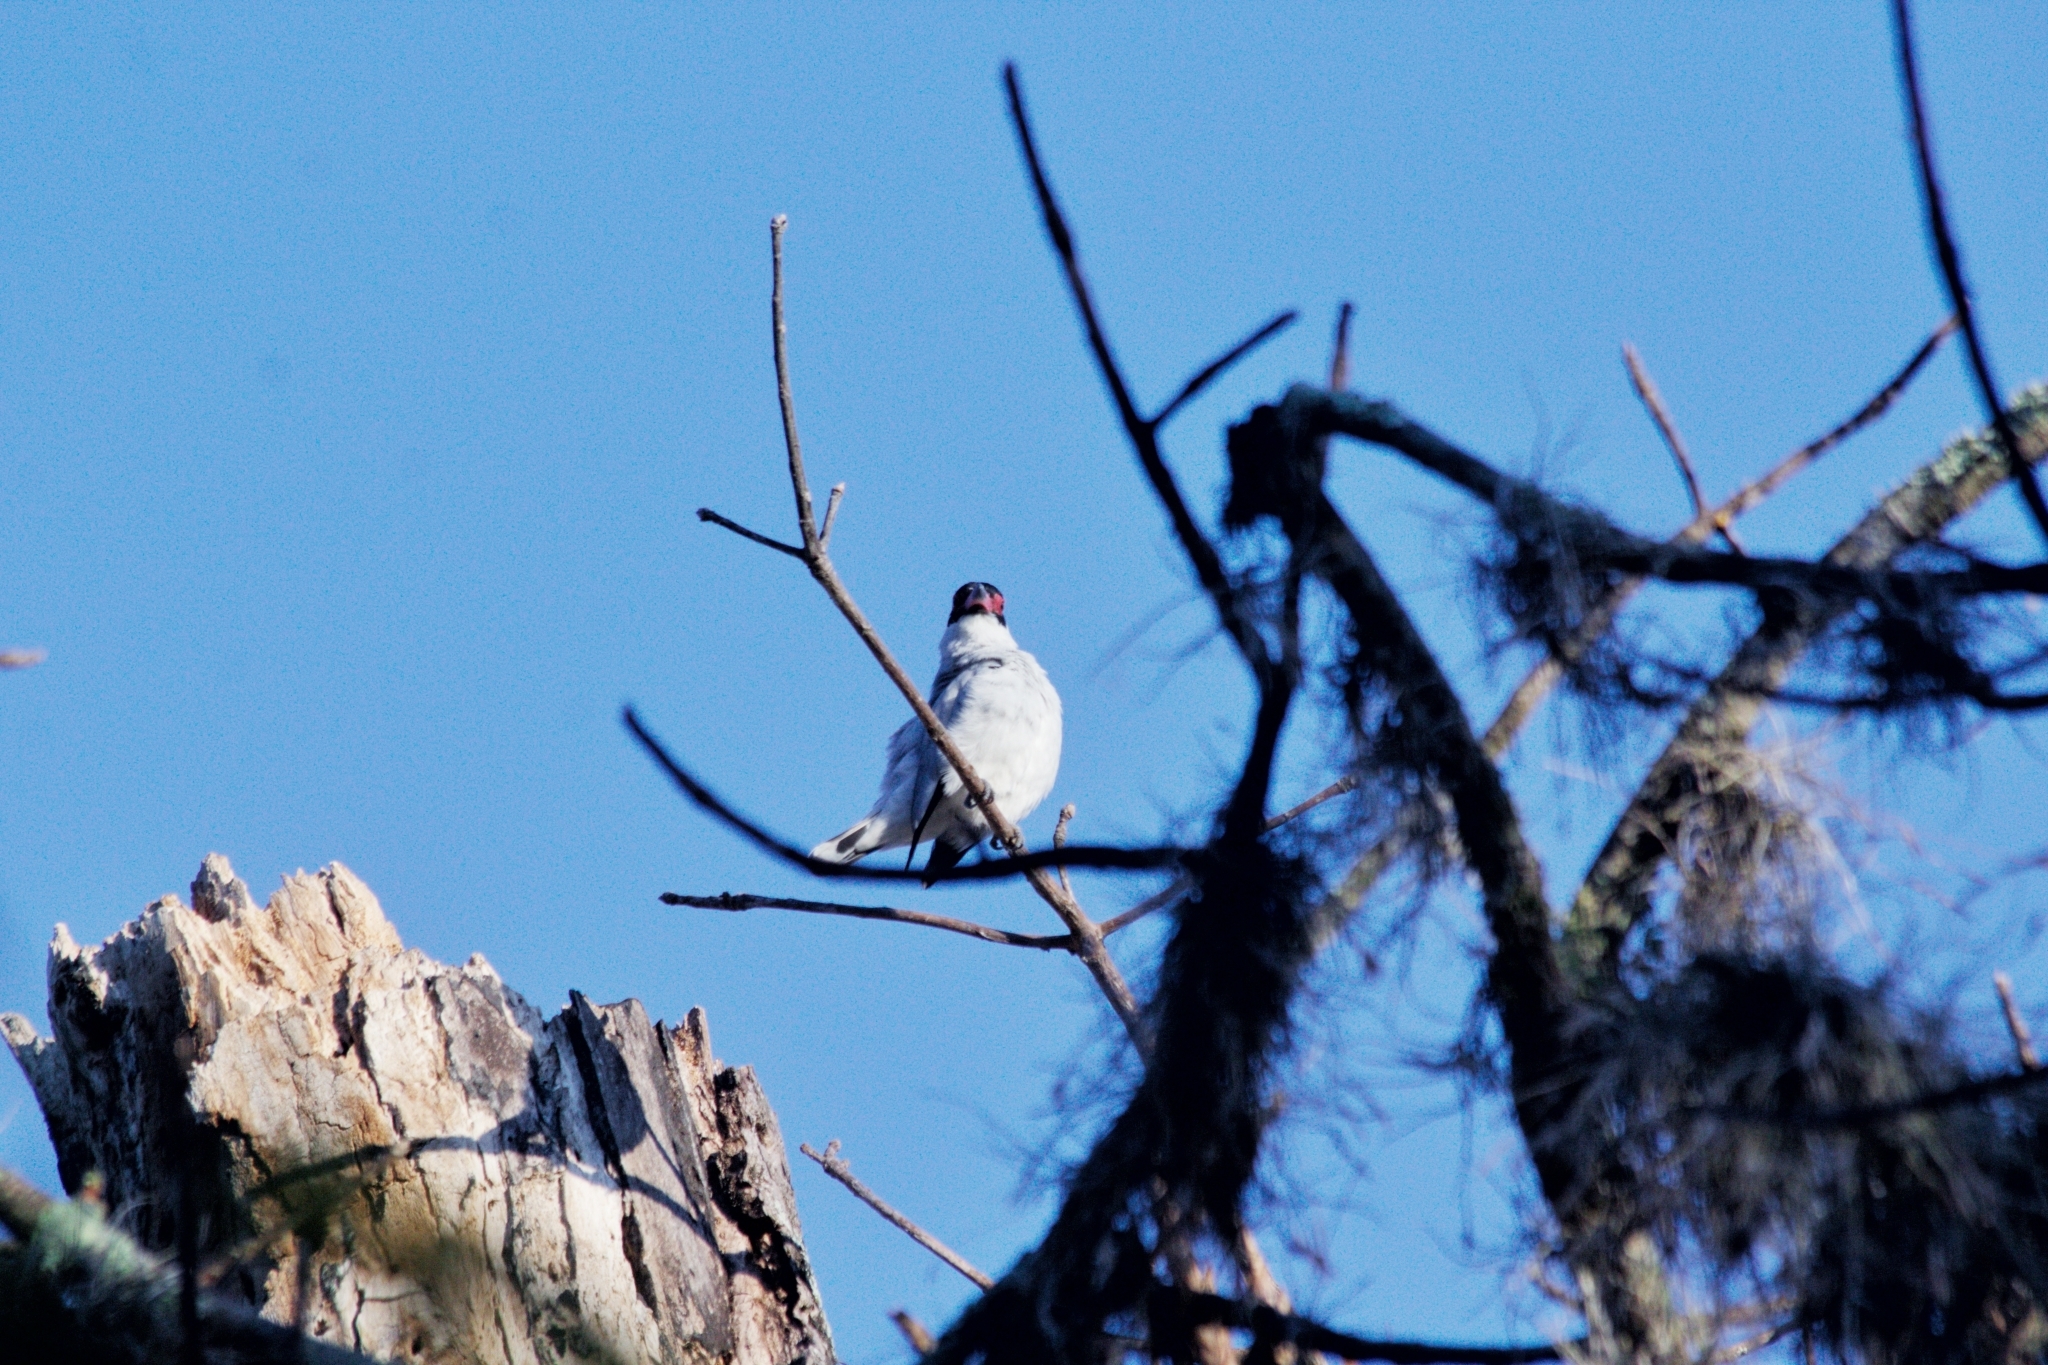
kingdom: Animalia
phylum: Chordata
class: Aves
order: Passeriformes
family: Cotingidae
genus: Tityra
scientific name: Tityra semifasciata
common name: Masked tityra
